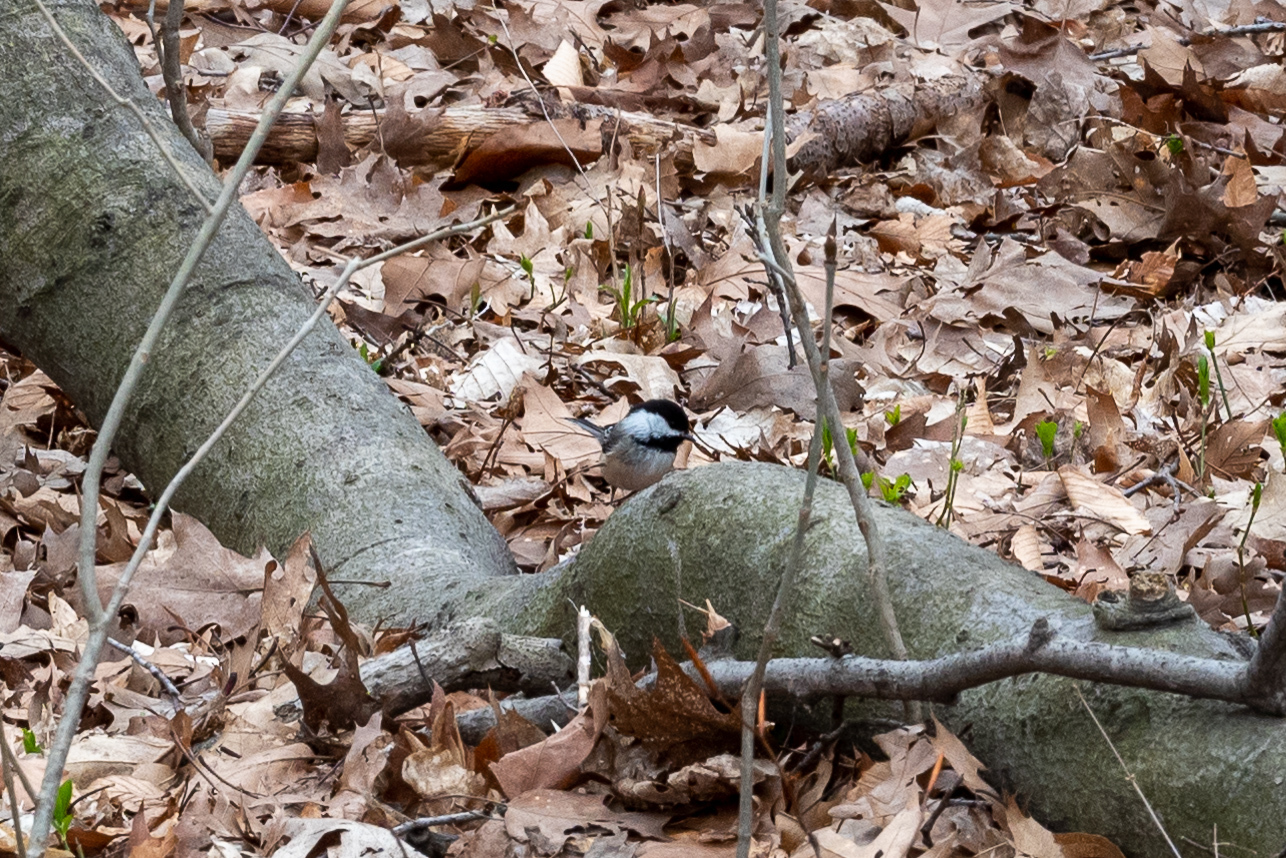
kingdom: Animalia
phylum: Chordata
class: Aves
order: Passeriformes
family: Paridae
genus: Poecile
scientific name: Poecile atricapillus
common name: Black-capped chickadee
